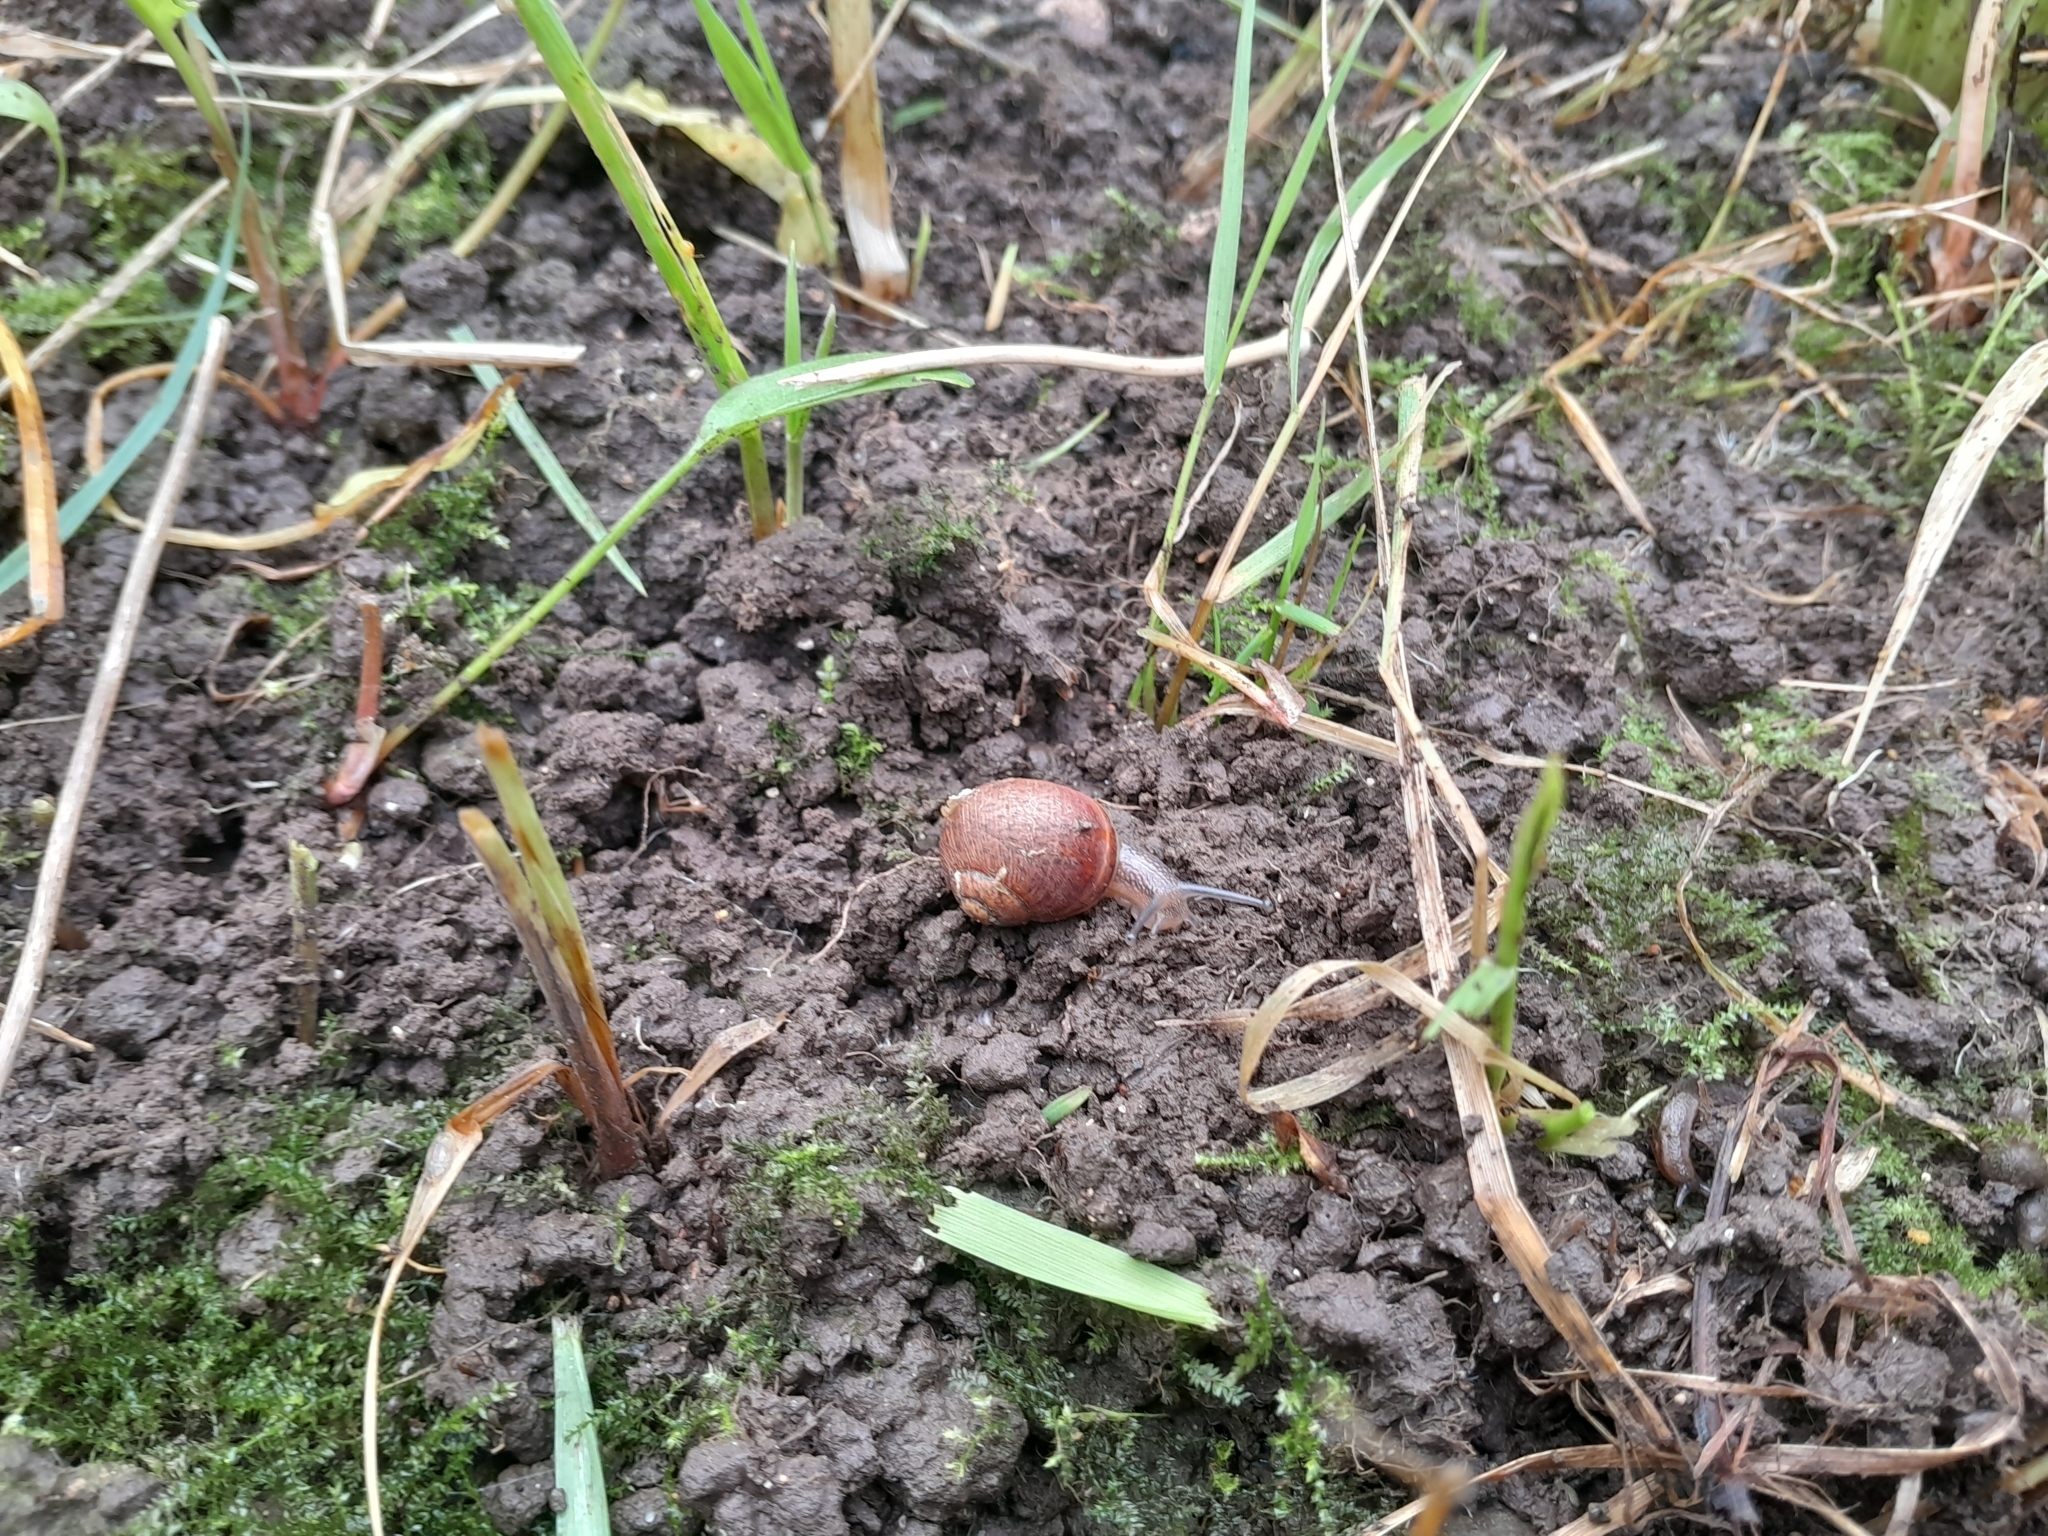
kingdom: Animalia
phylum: Mollusca
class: Gastropoda
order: Stylommatophora
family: Helicidae
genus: Cornu
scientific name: Cornu aspersum
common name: Brown garden snail
